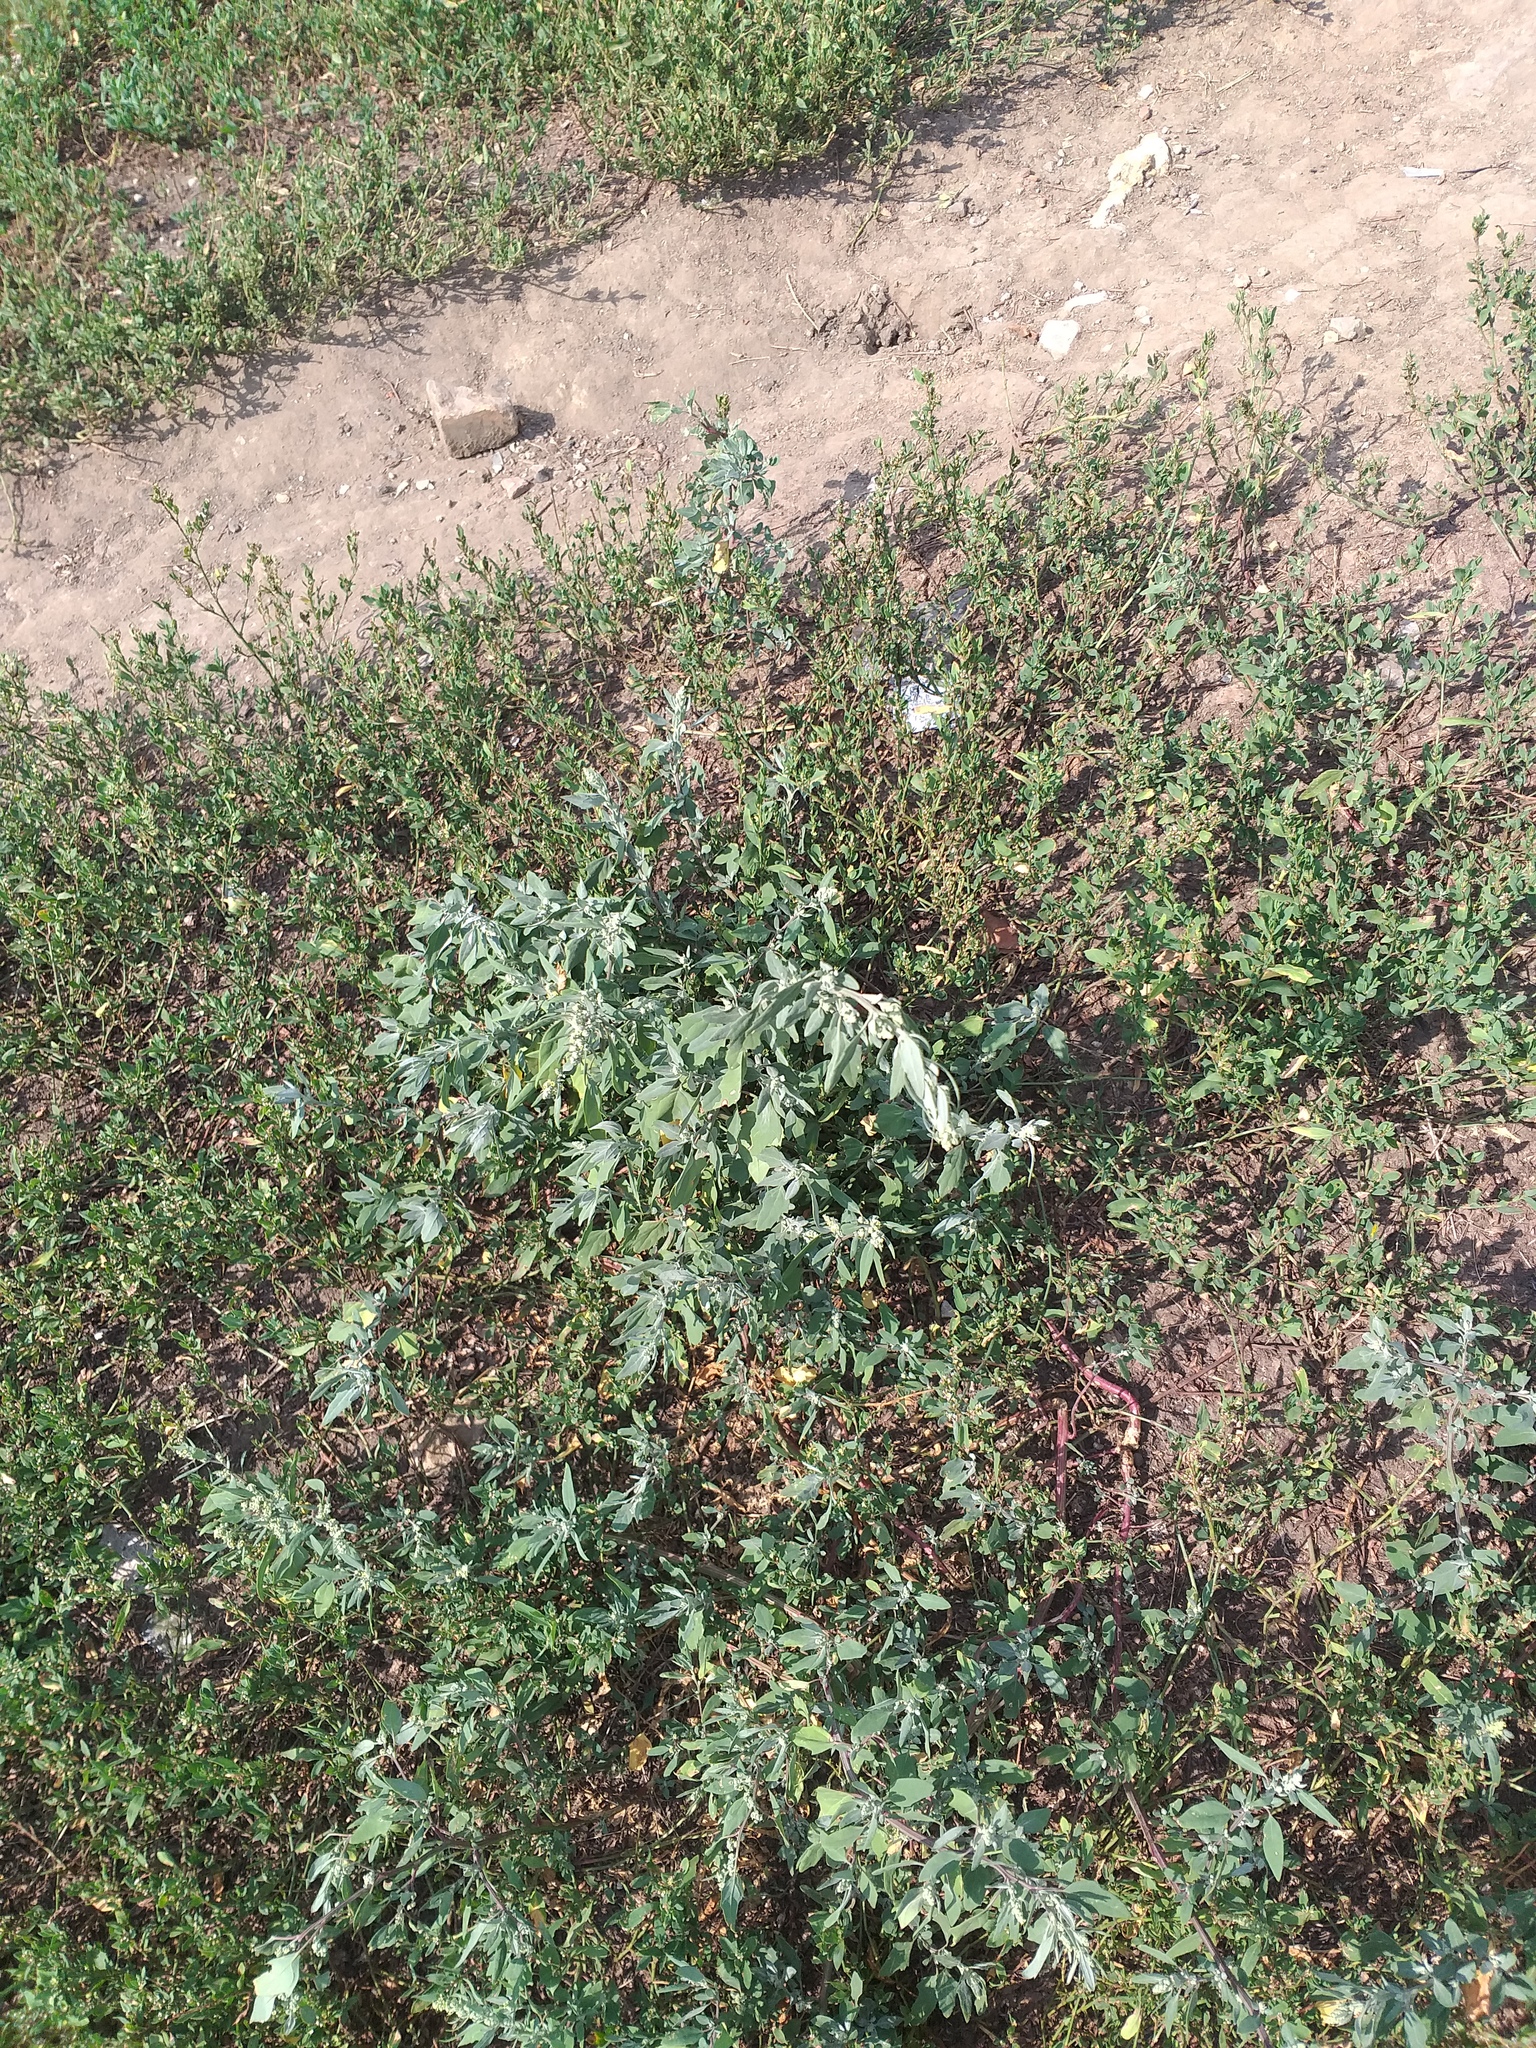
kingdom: Plantae
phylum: Tracheophyta
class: Magnoliopsida
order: Caryophyllales
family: Amaranthaceae
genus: Chenopodium
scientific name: Chenopodium album
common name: Fat-hen
